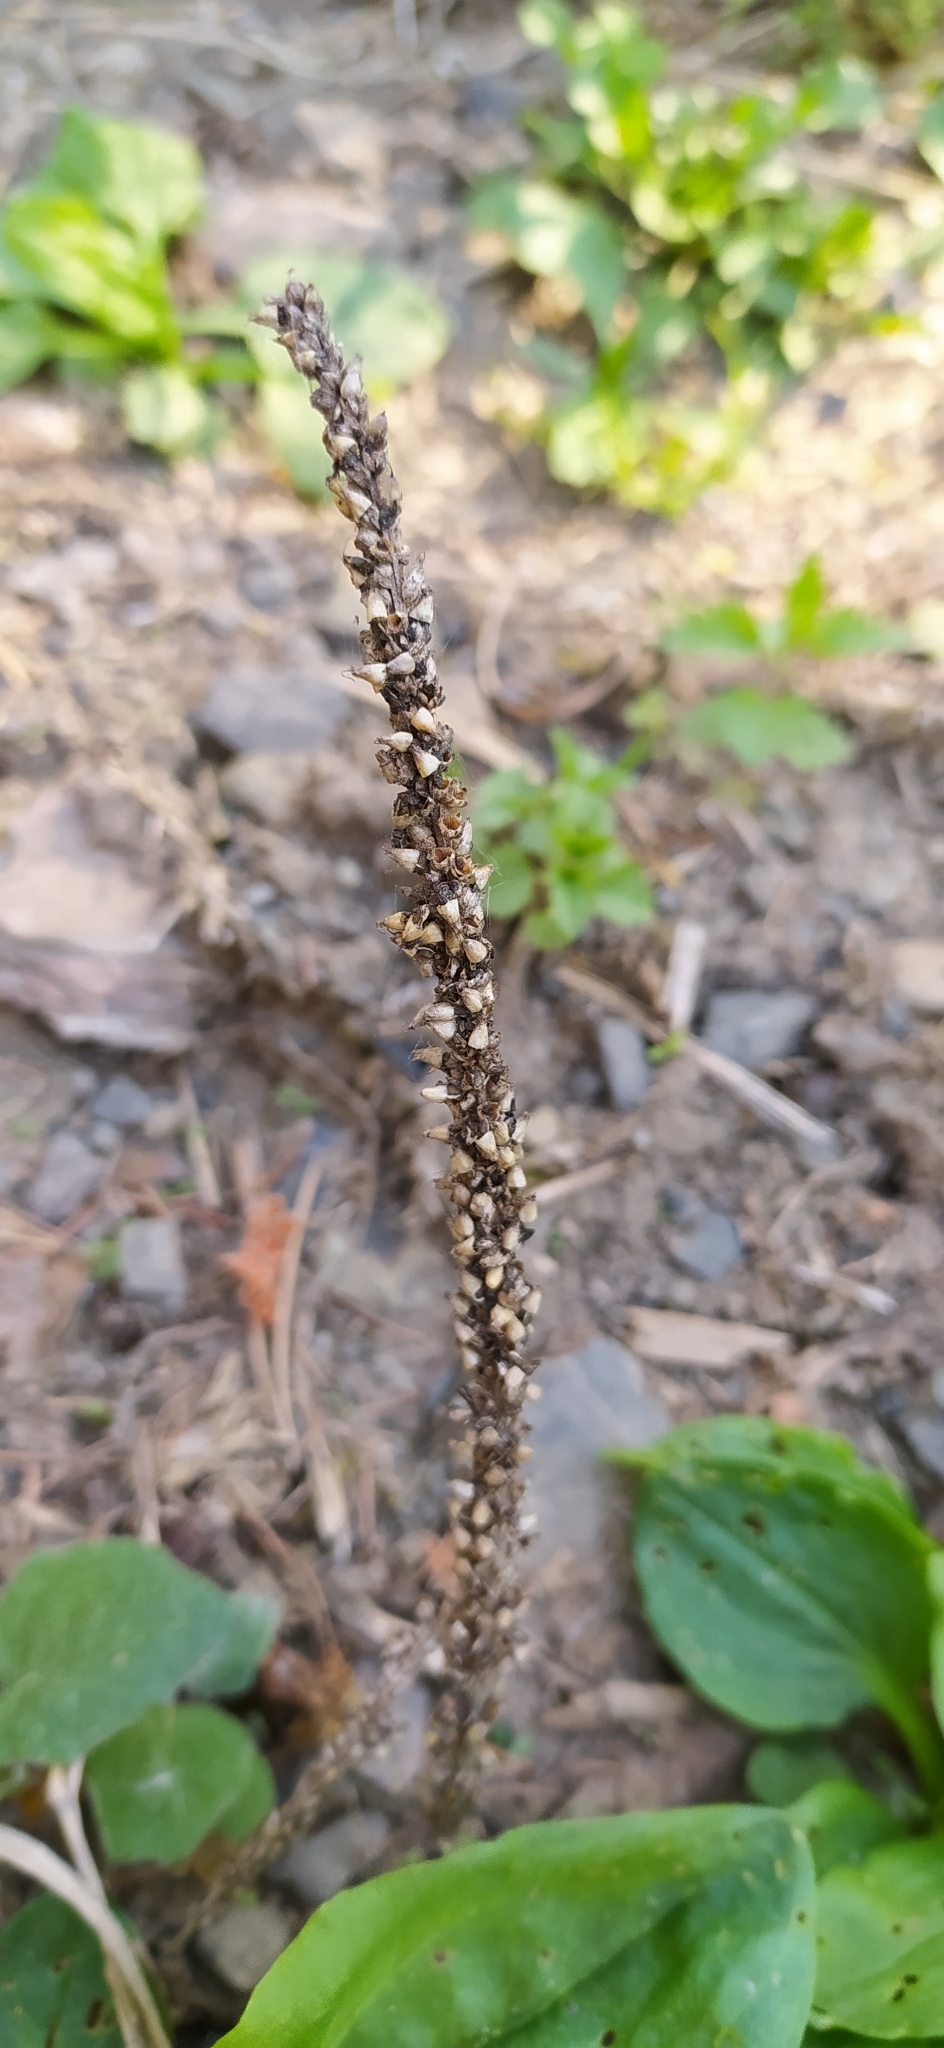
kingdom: Plantae
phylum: Tracheophyta
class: Magnoliopsida
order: Lamiales
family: Plantaginaceae
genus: Plantago
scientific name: Plantago major
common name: Common plantain
